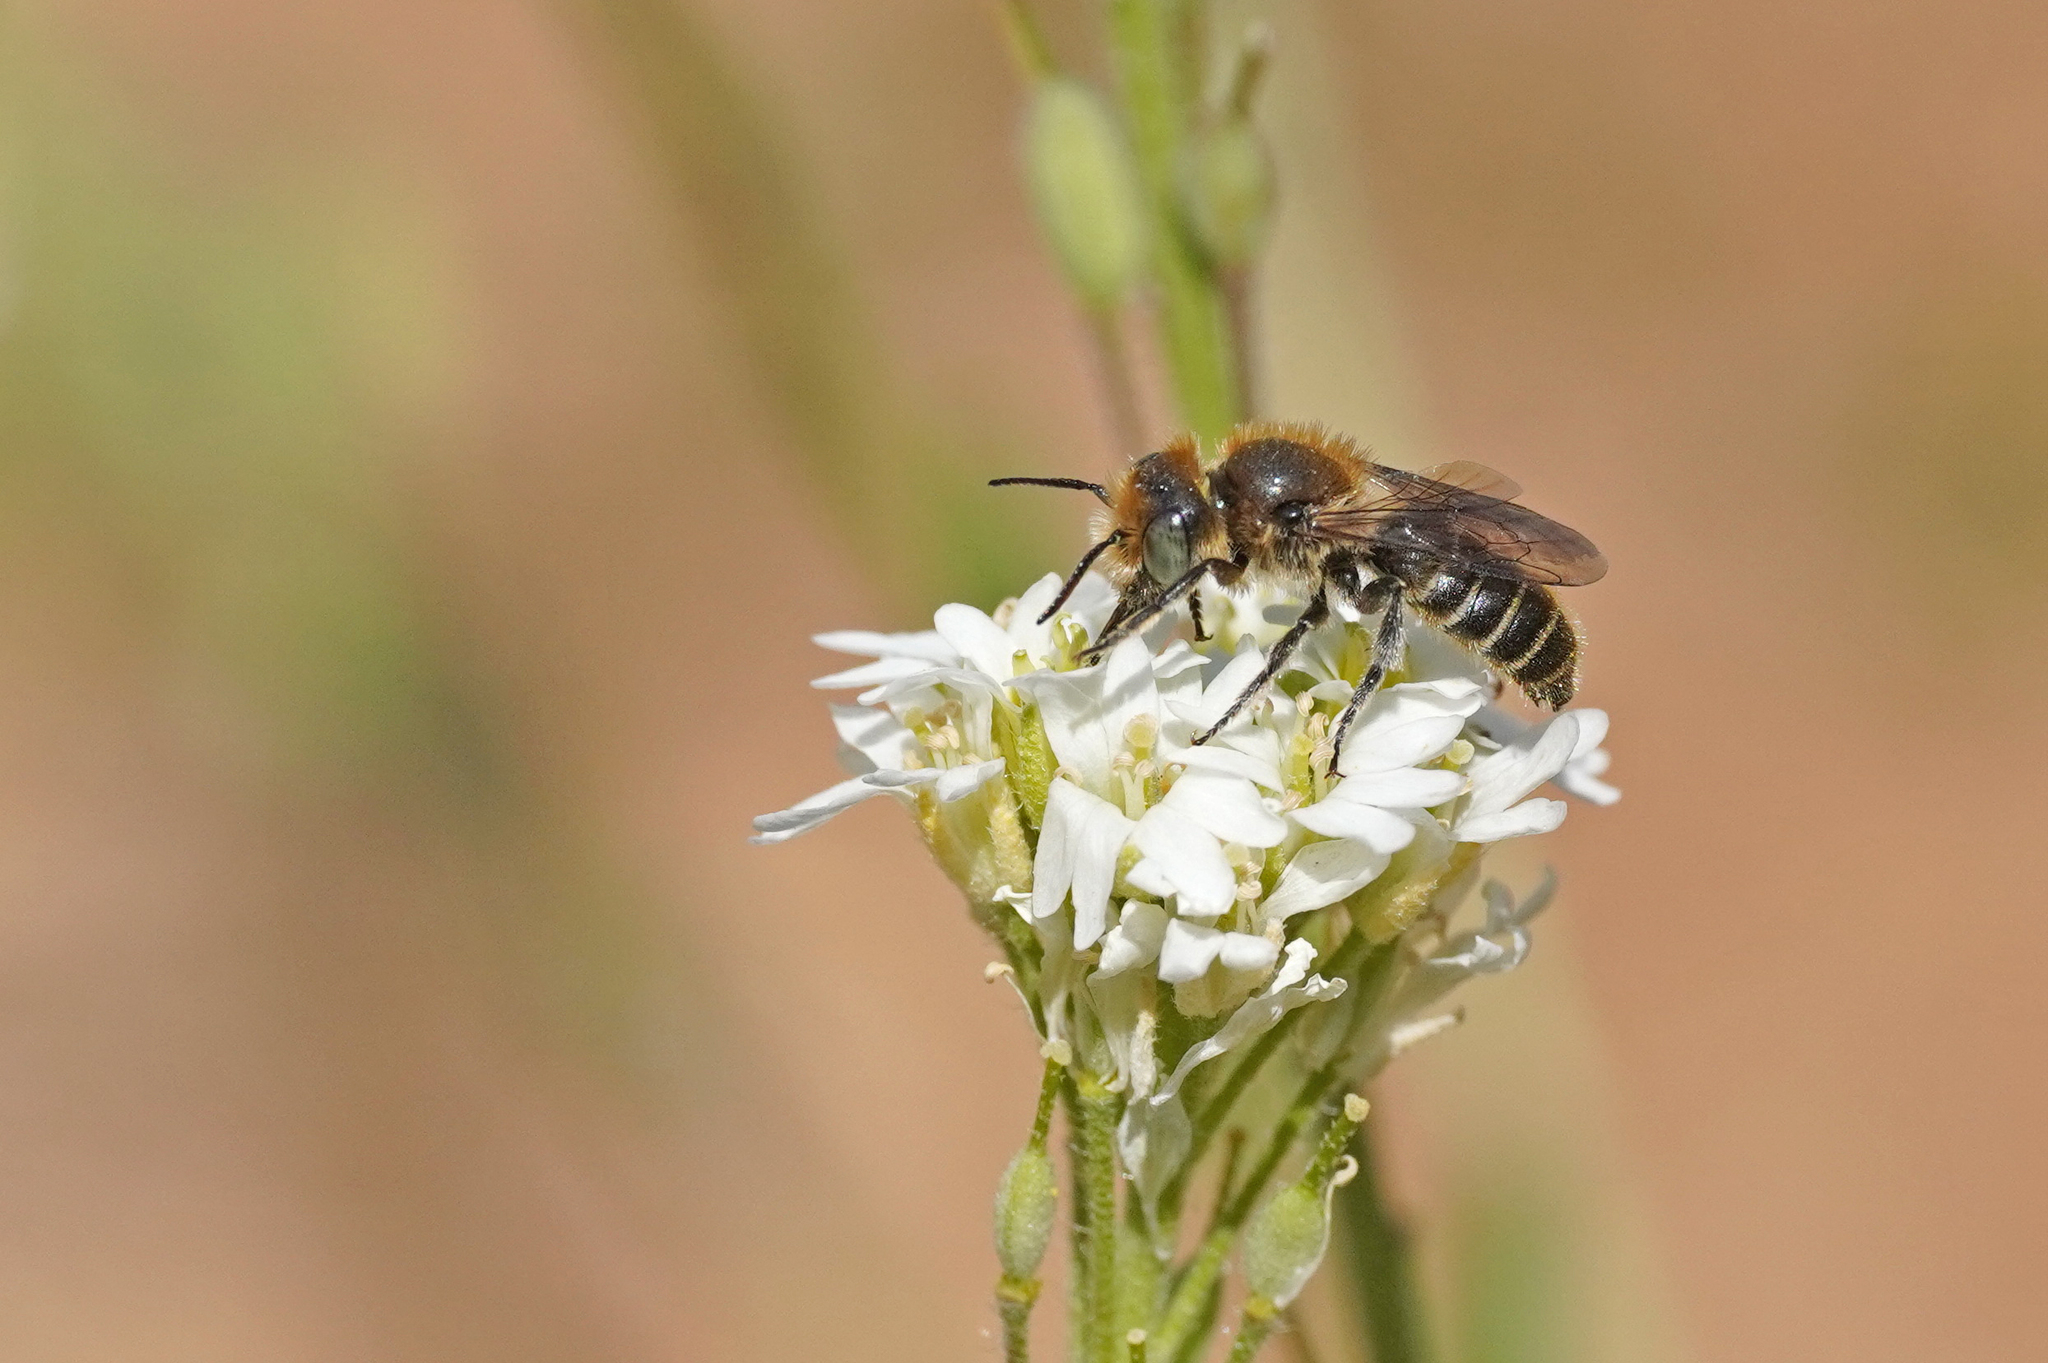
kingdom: Animalia
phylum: Arthropoda
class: Insecta
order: Hymenoptera
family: Megachilidae
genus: Hoplitis
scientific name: Hoplitis adunca
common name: Viper's bugloss mason bee
